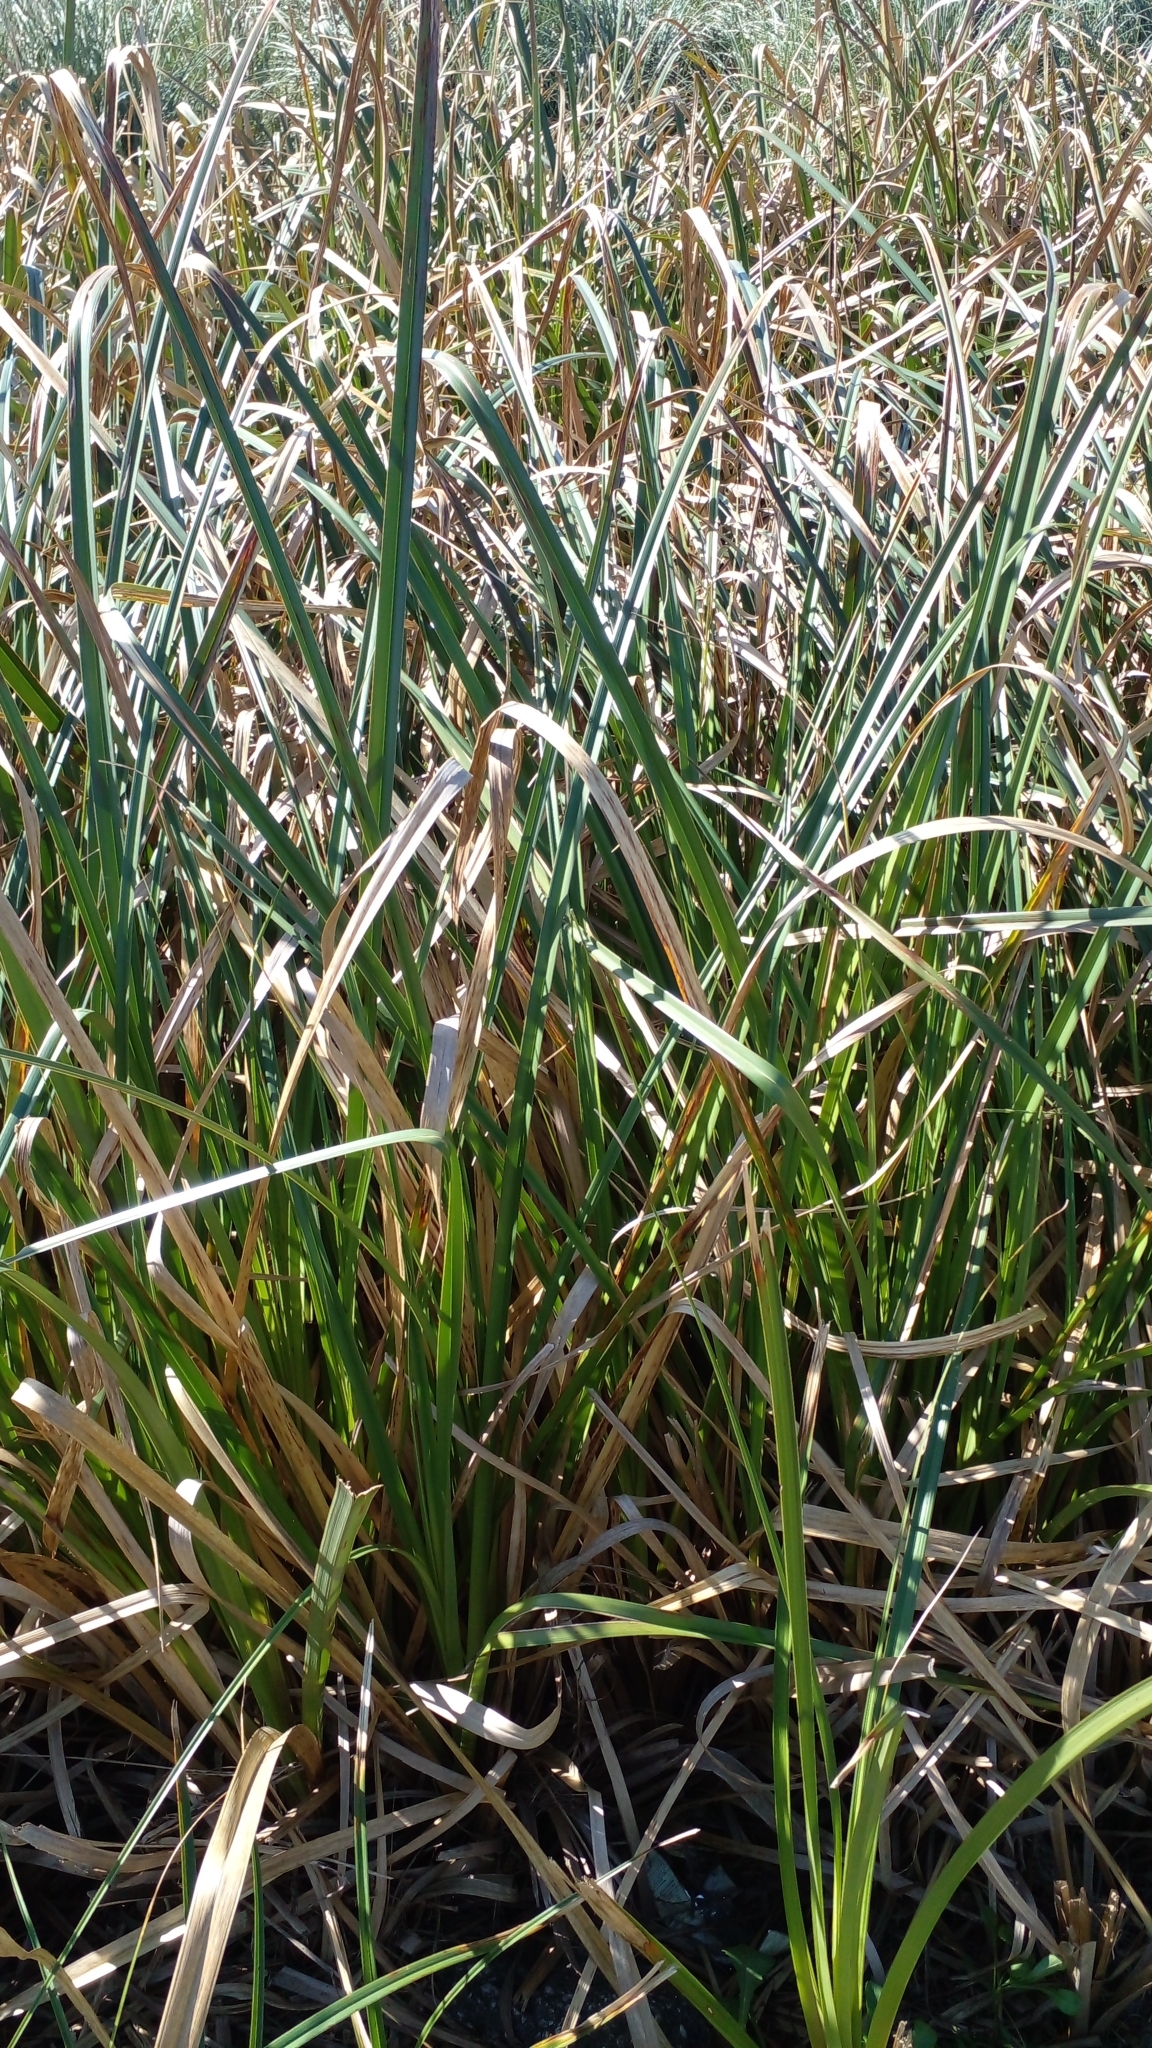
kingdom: Plantae
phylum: Tracheophyta
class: Liliopsida
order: Poales
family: Typhaceae
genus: Typha
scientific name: Typha latifolia
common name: Broadleaf cattail
